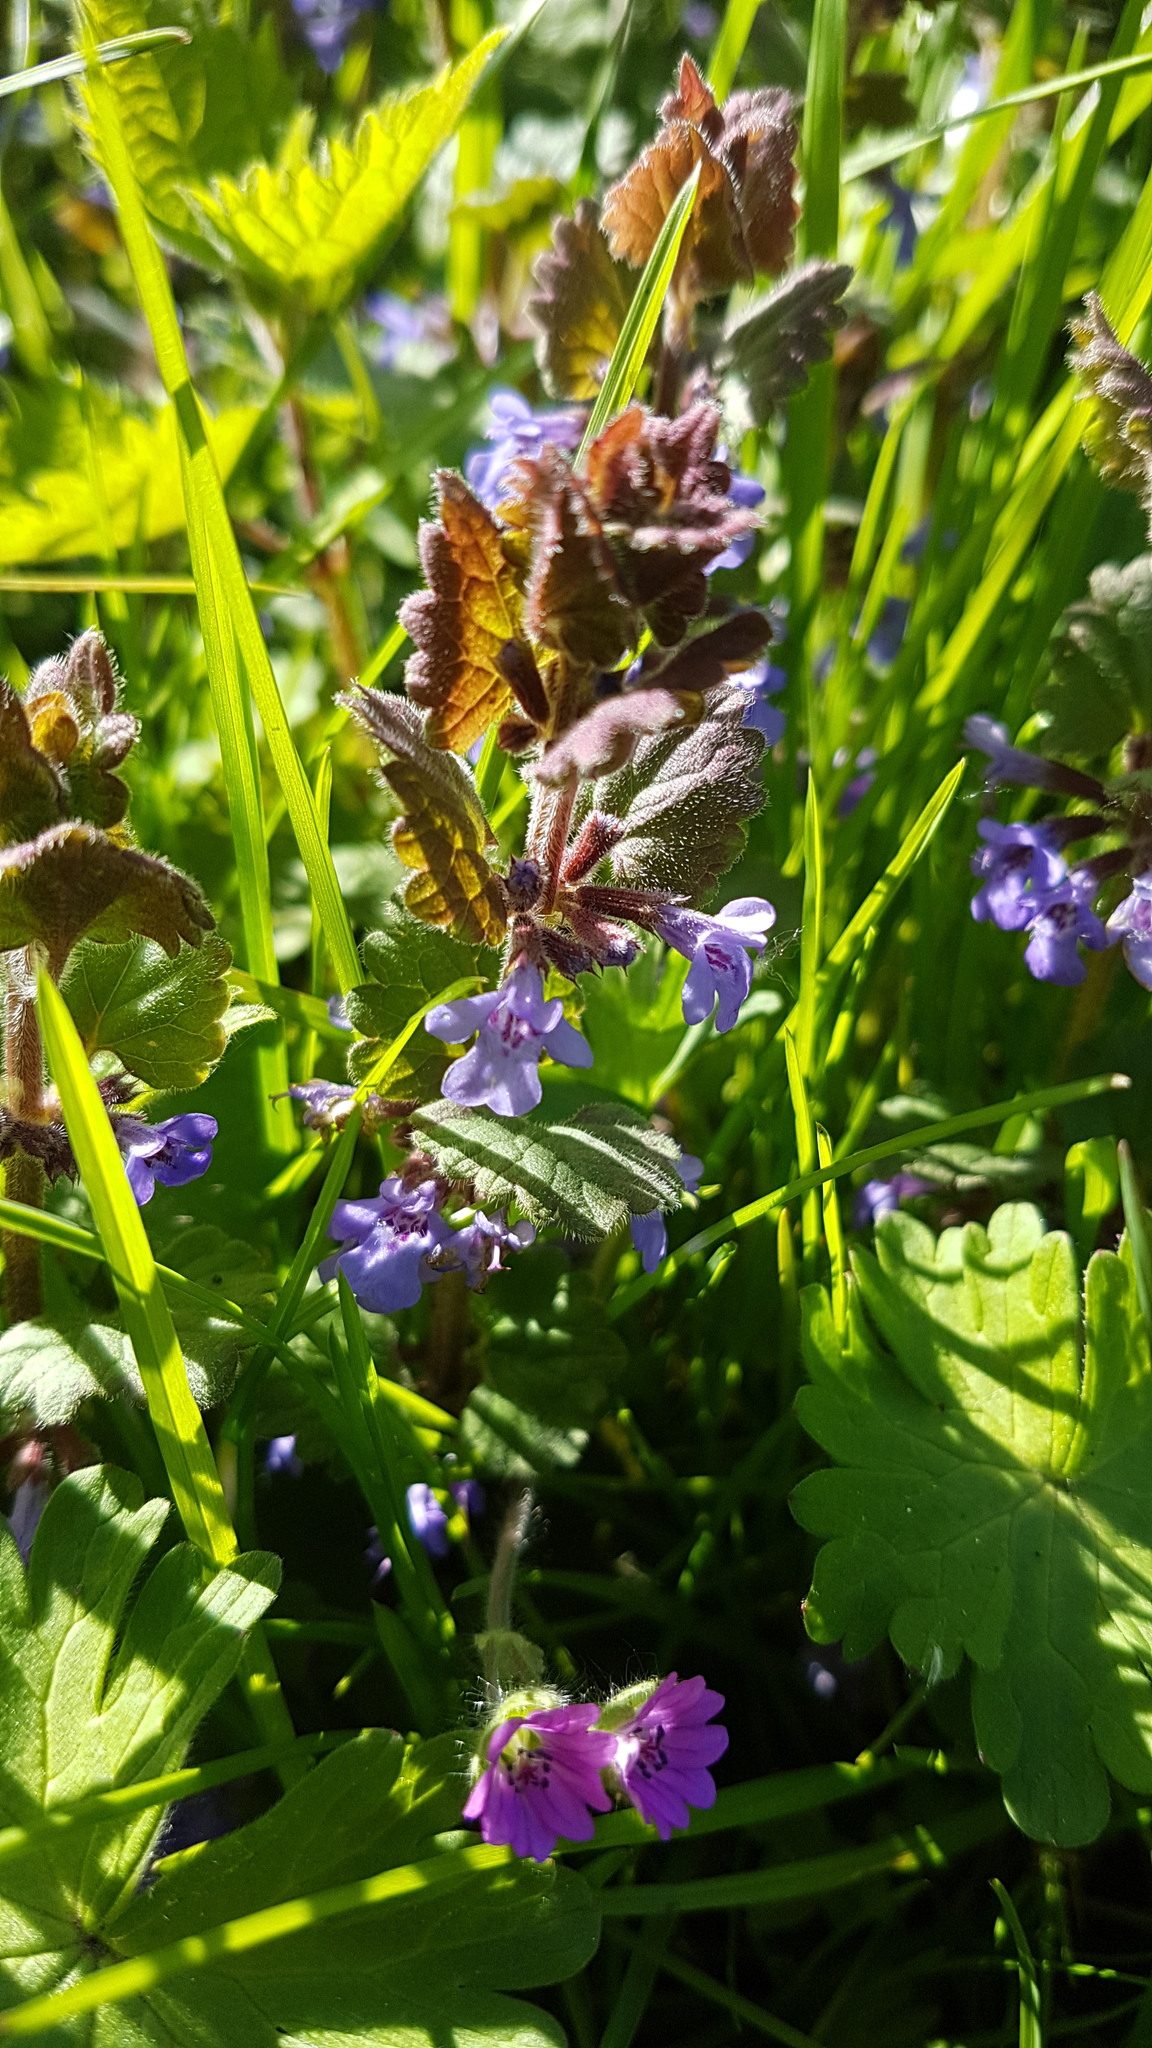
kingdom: Plantae
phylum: Tracheophyta
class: Magnoliopsida
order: Lamiales
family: Lamiaceae
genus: Glechoma
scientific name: Glechoma hederacea
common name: Ground ivy
